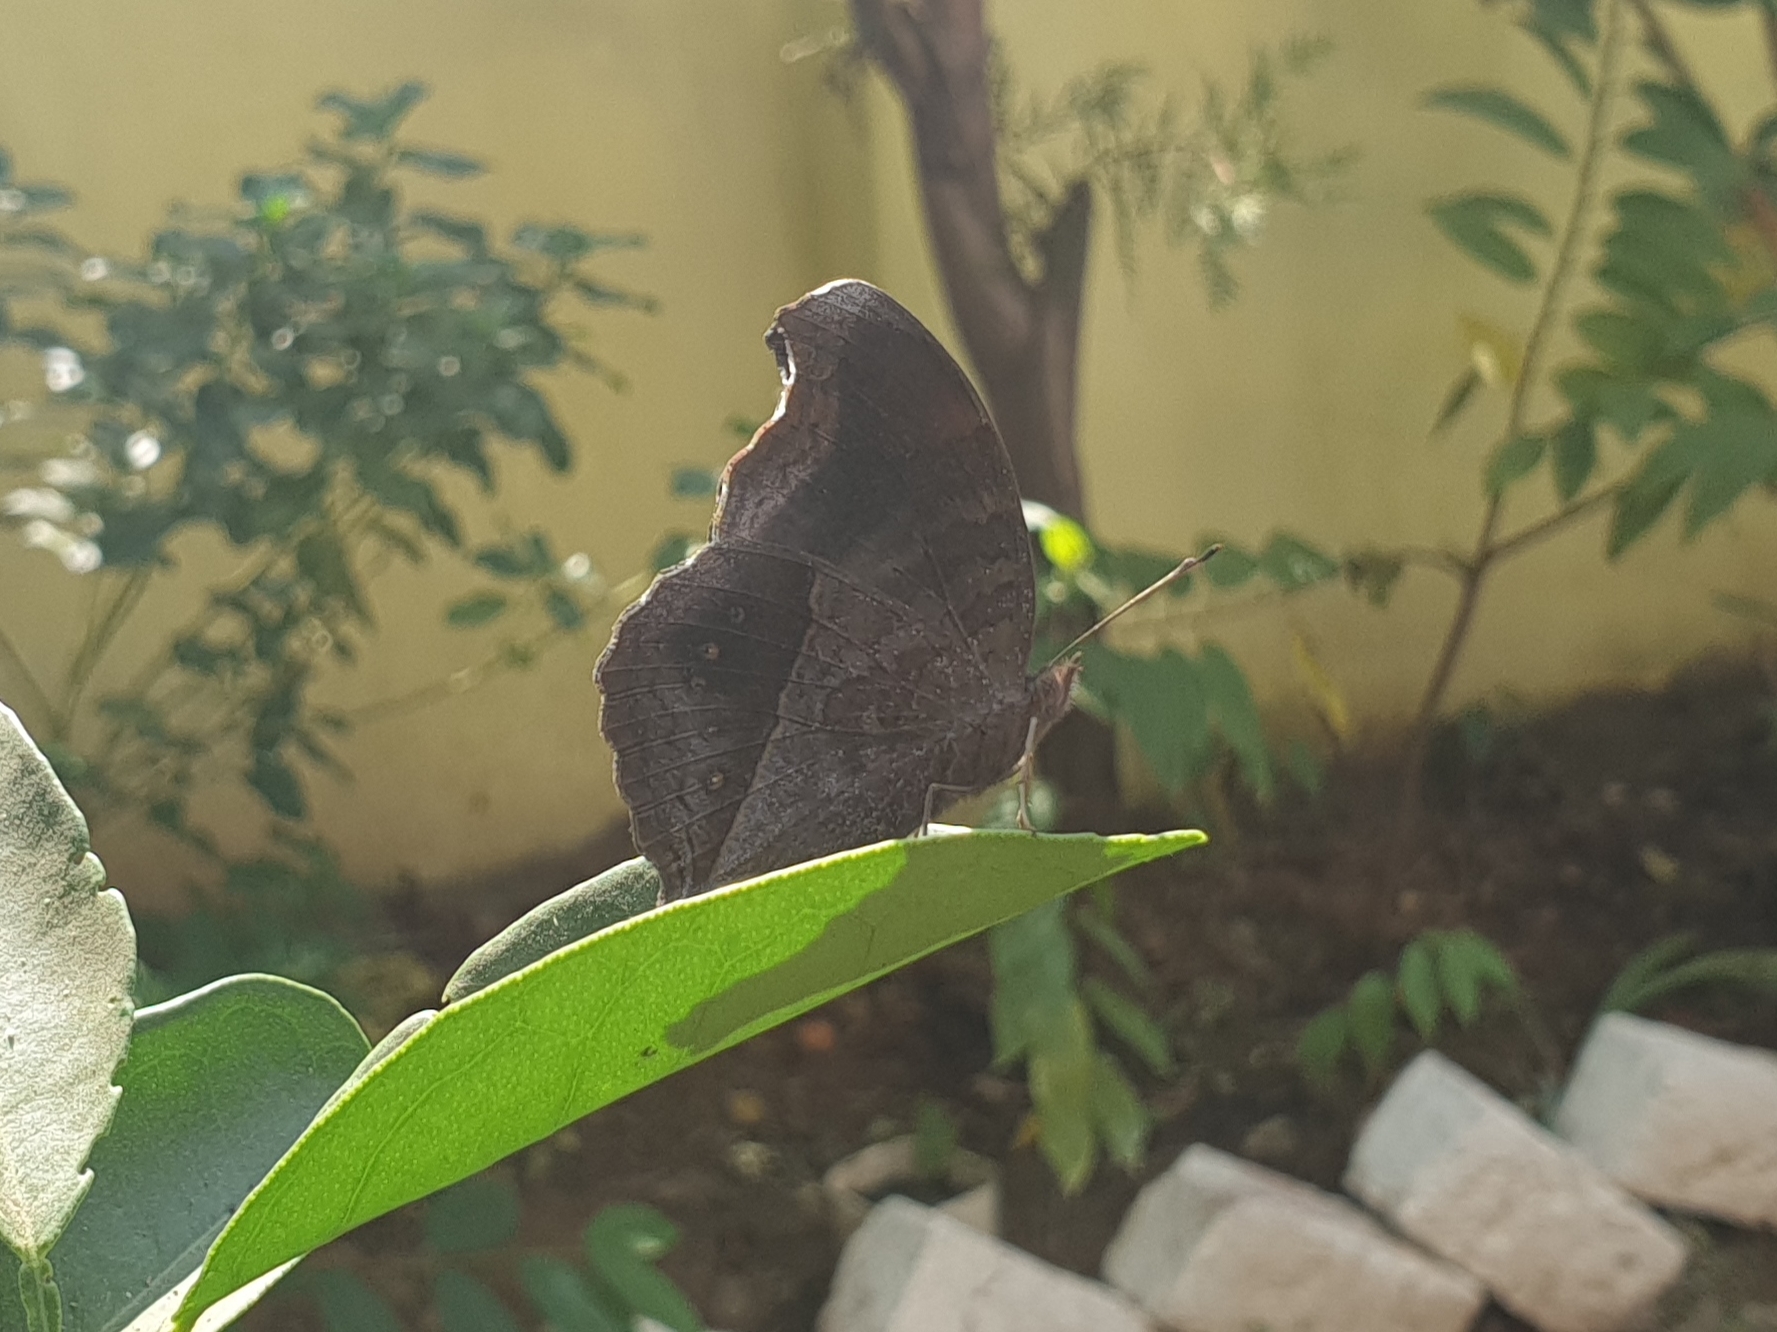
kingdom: Animalia
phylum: Arthropoda
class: Insecta
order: Lepidoptera
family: Nymphalidae
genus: Junonia
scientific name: Junonia iphita
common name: Chocolate pansy
